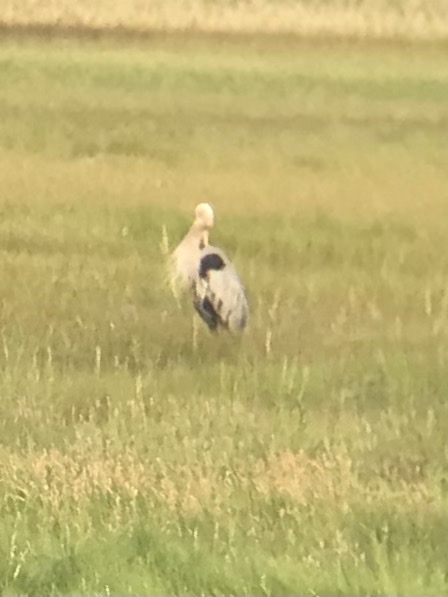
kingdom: Animalia
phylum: Chordata
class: Aves
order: Pelecaniformes
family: Ardeidae
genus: Ardea
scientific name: Ardea herodias
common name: Great blue heron
